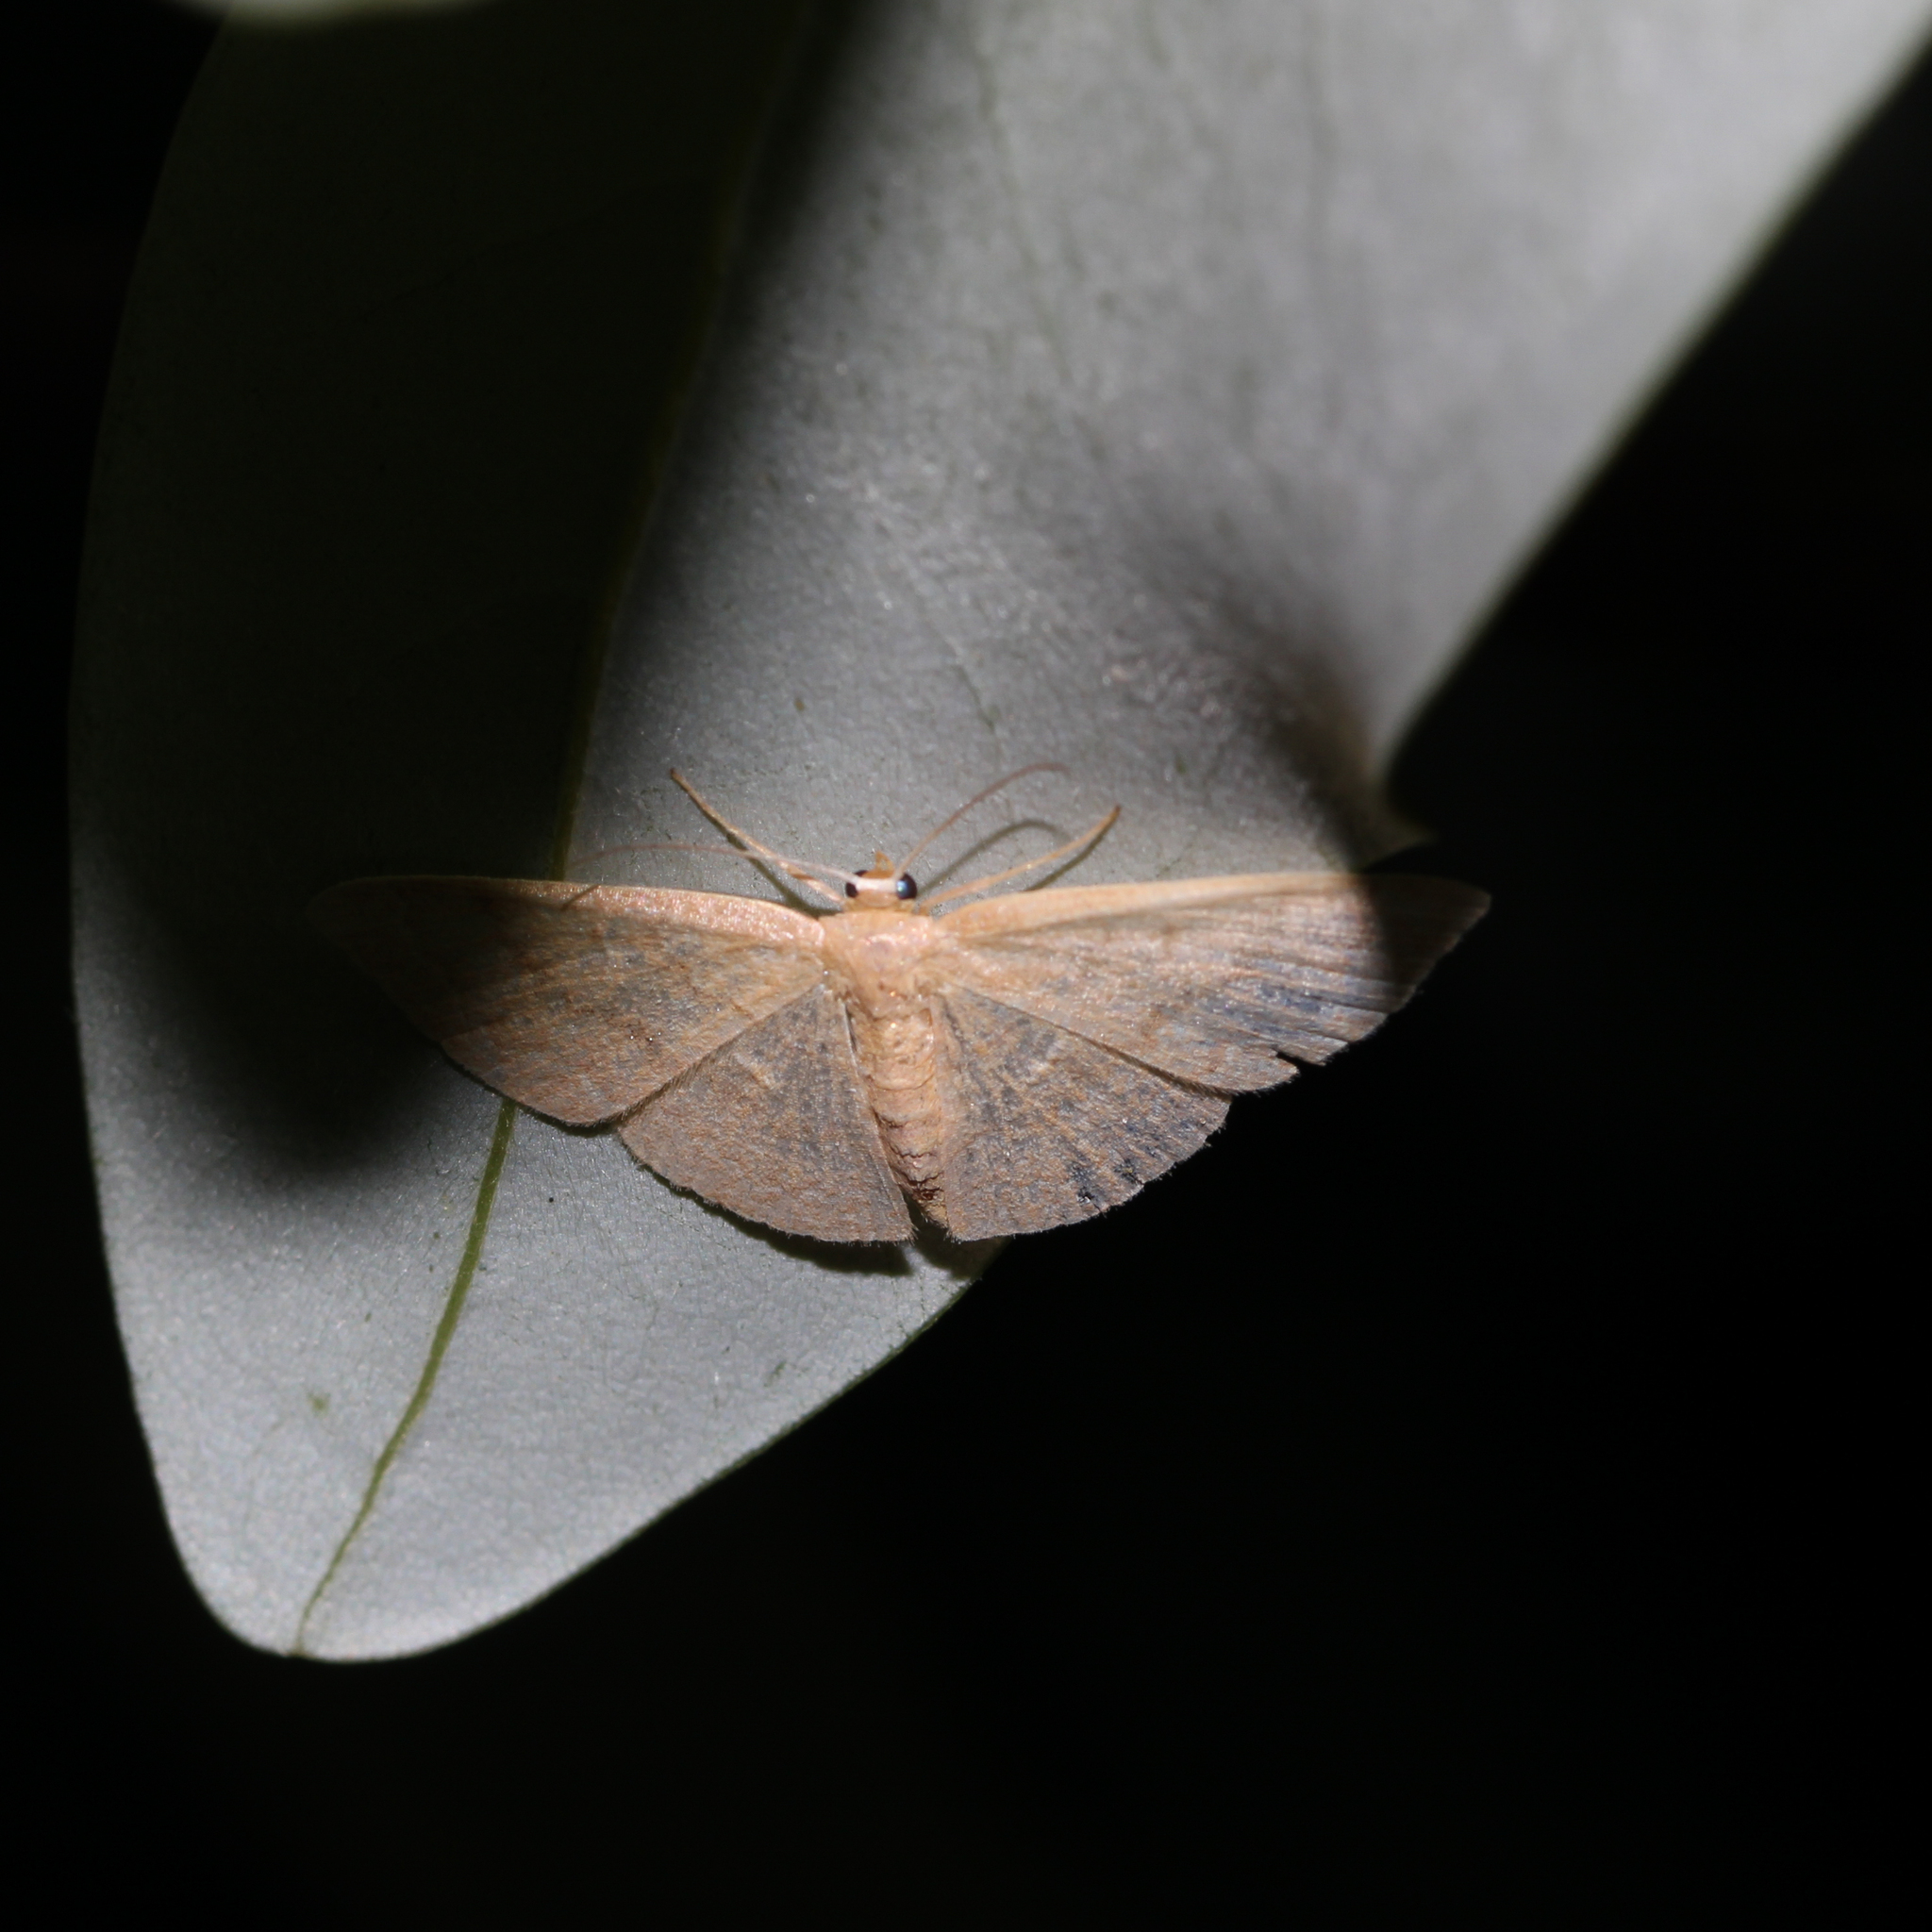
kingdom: Animalia
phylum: Arthropoda
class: Insecta
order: Lepidoptera
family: Geometridae
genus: Pleuroprucha
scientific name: Pleuroprucha insulsaria
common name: Common tan wave
